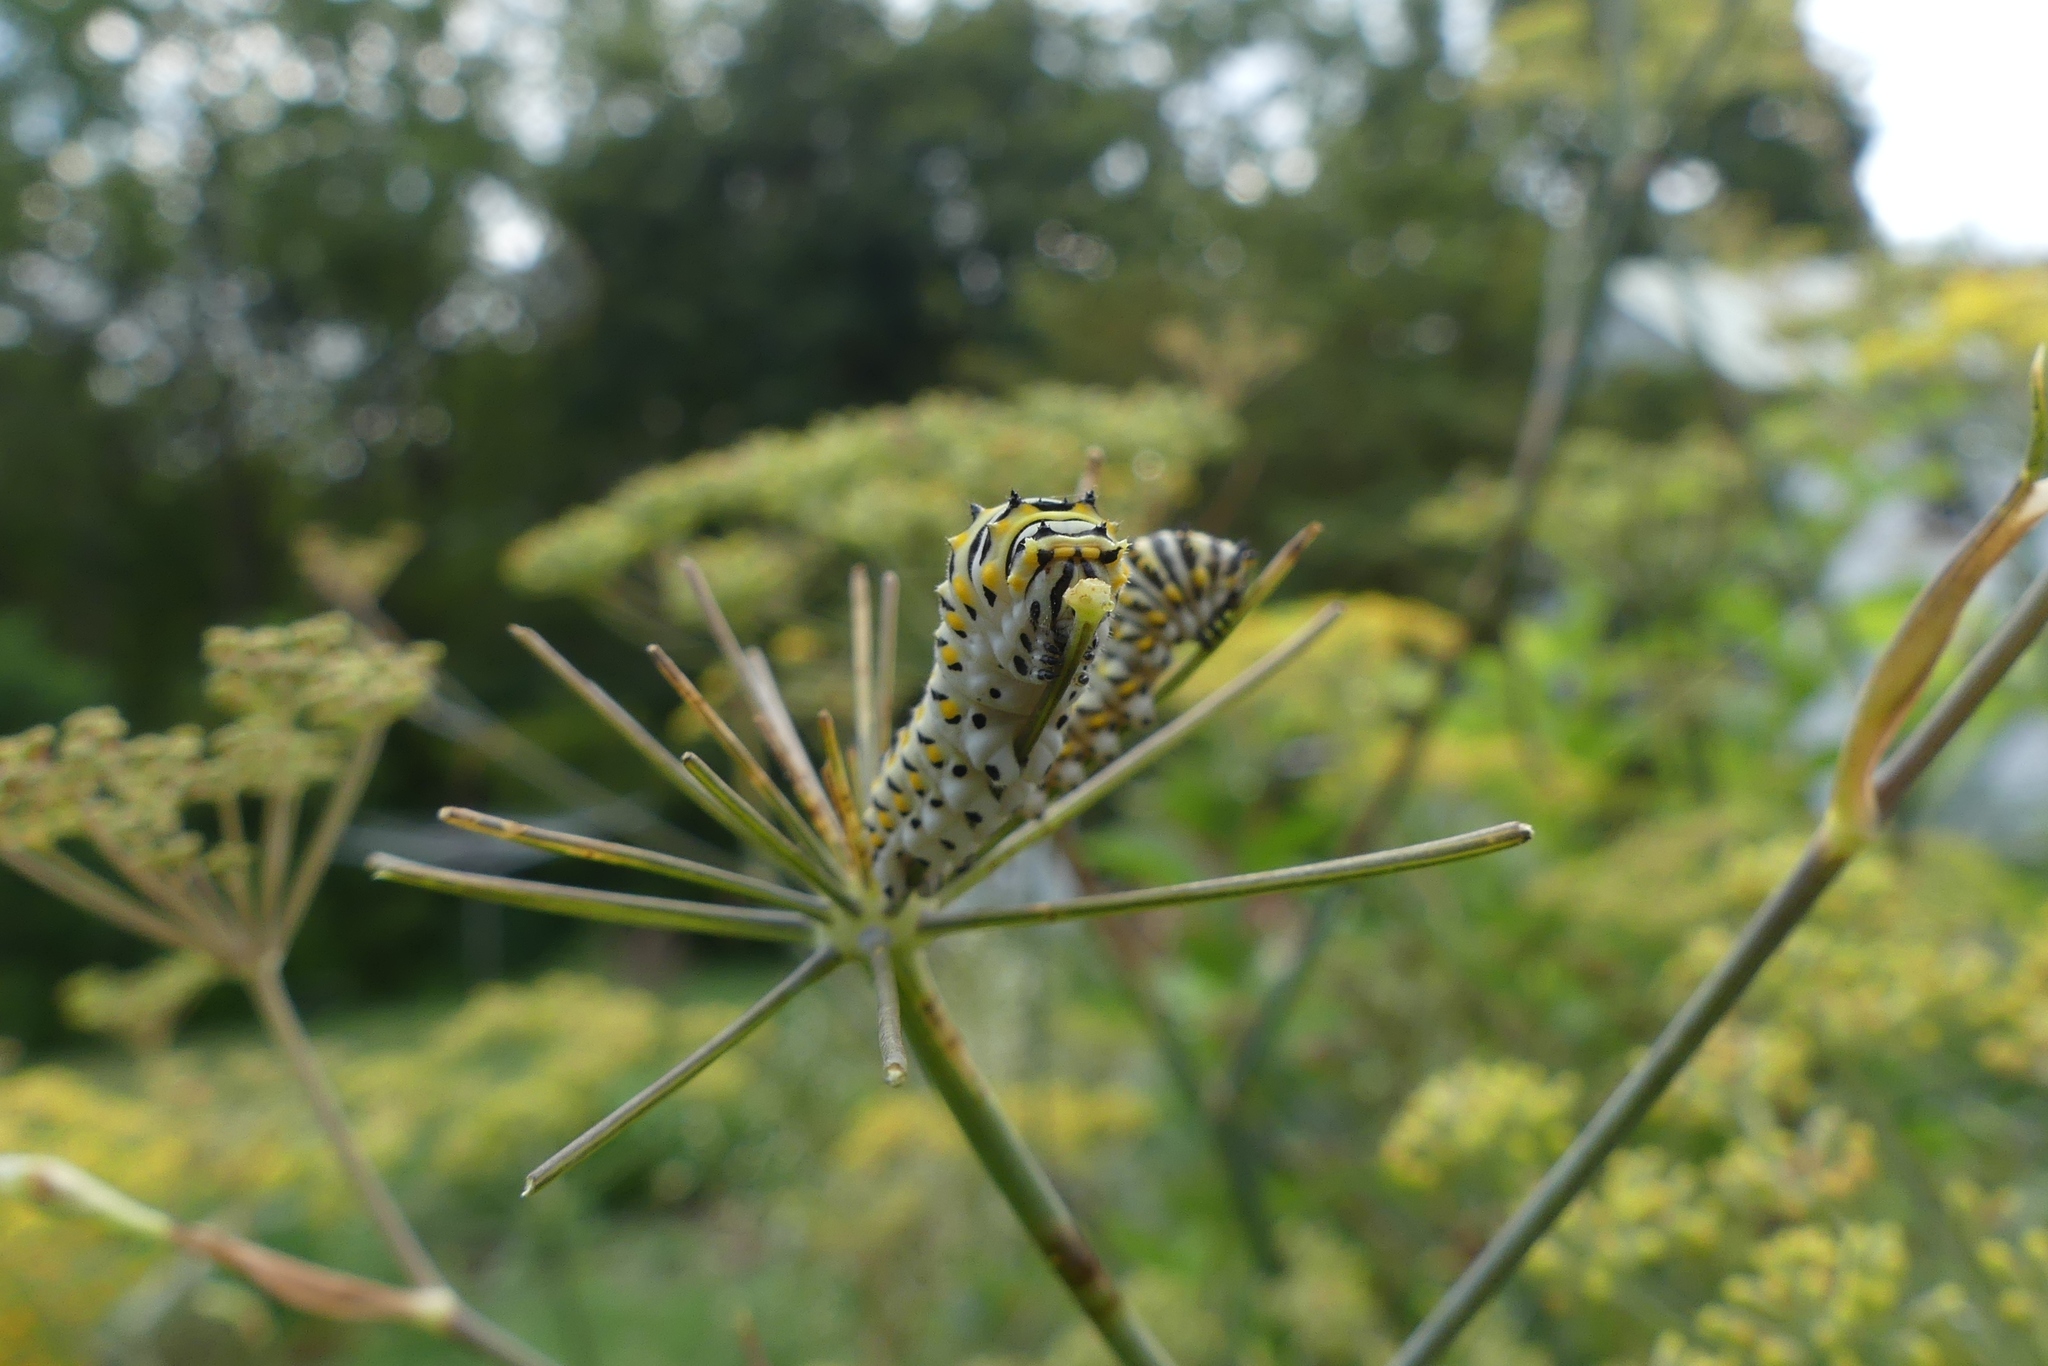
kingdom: Animalia
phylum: Arthropoda
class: Insecta
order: Lepidoptera
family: Papilionidae
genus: Papilio
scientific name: Papilio polyxenes
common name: Black swallowtail
